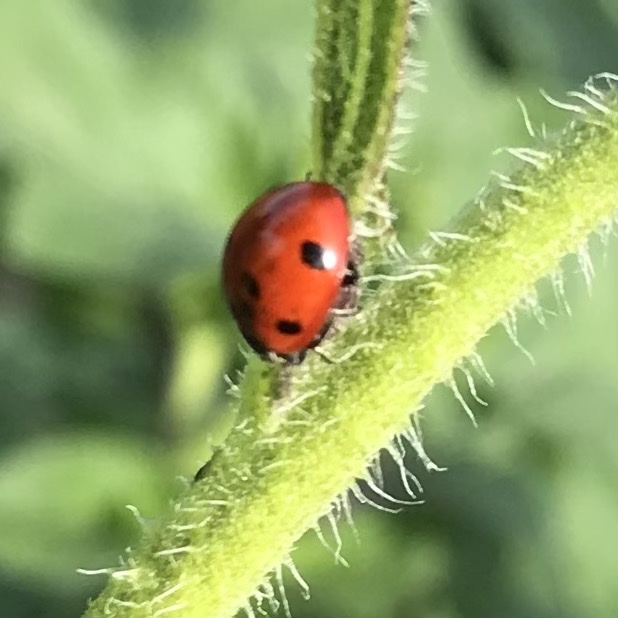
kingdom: Animalia
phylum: Arthropoda
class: Insecta
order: Coleoptera
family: Coccinellidae
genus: Coccinella
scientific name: Coccinella septempunctata
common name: Sevenspotted lady beetle
